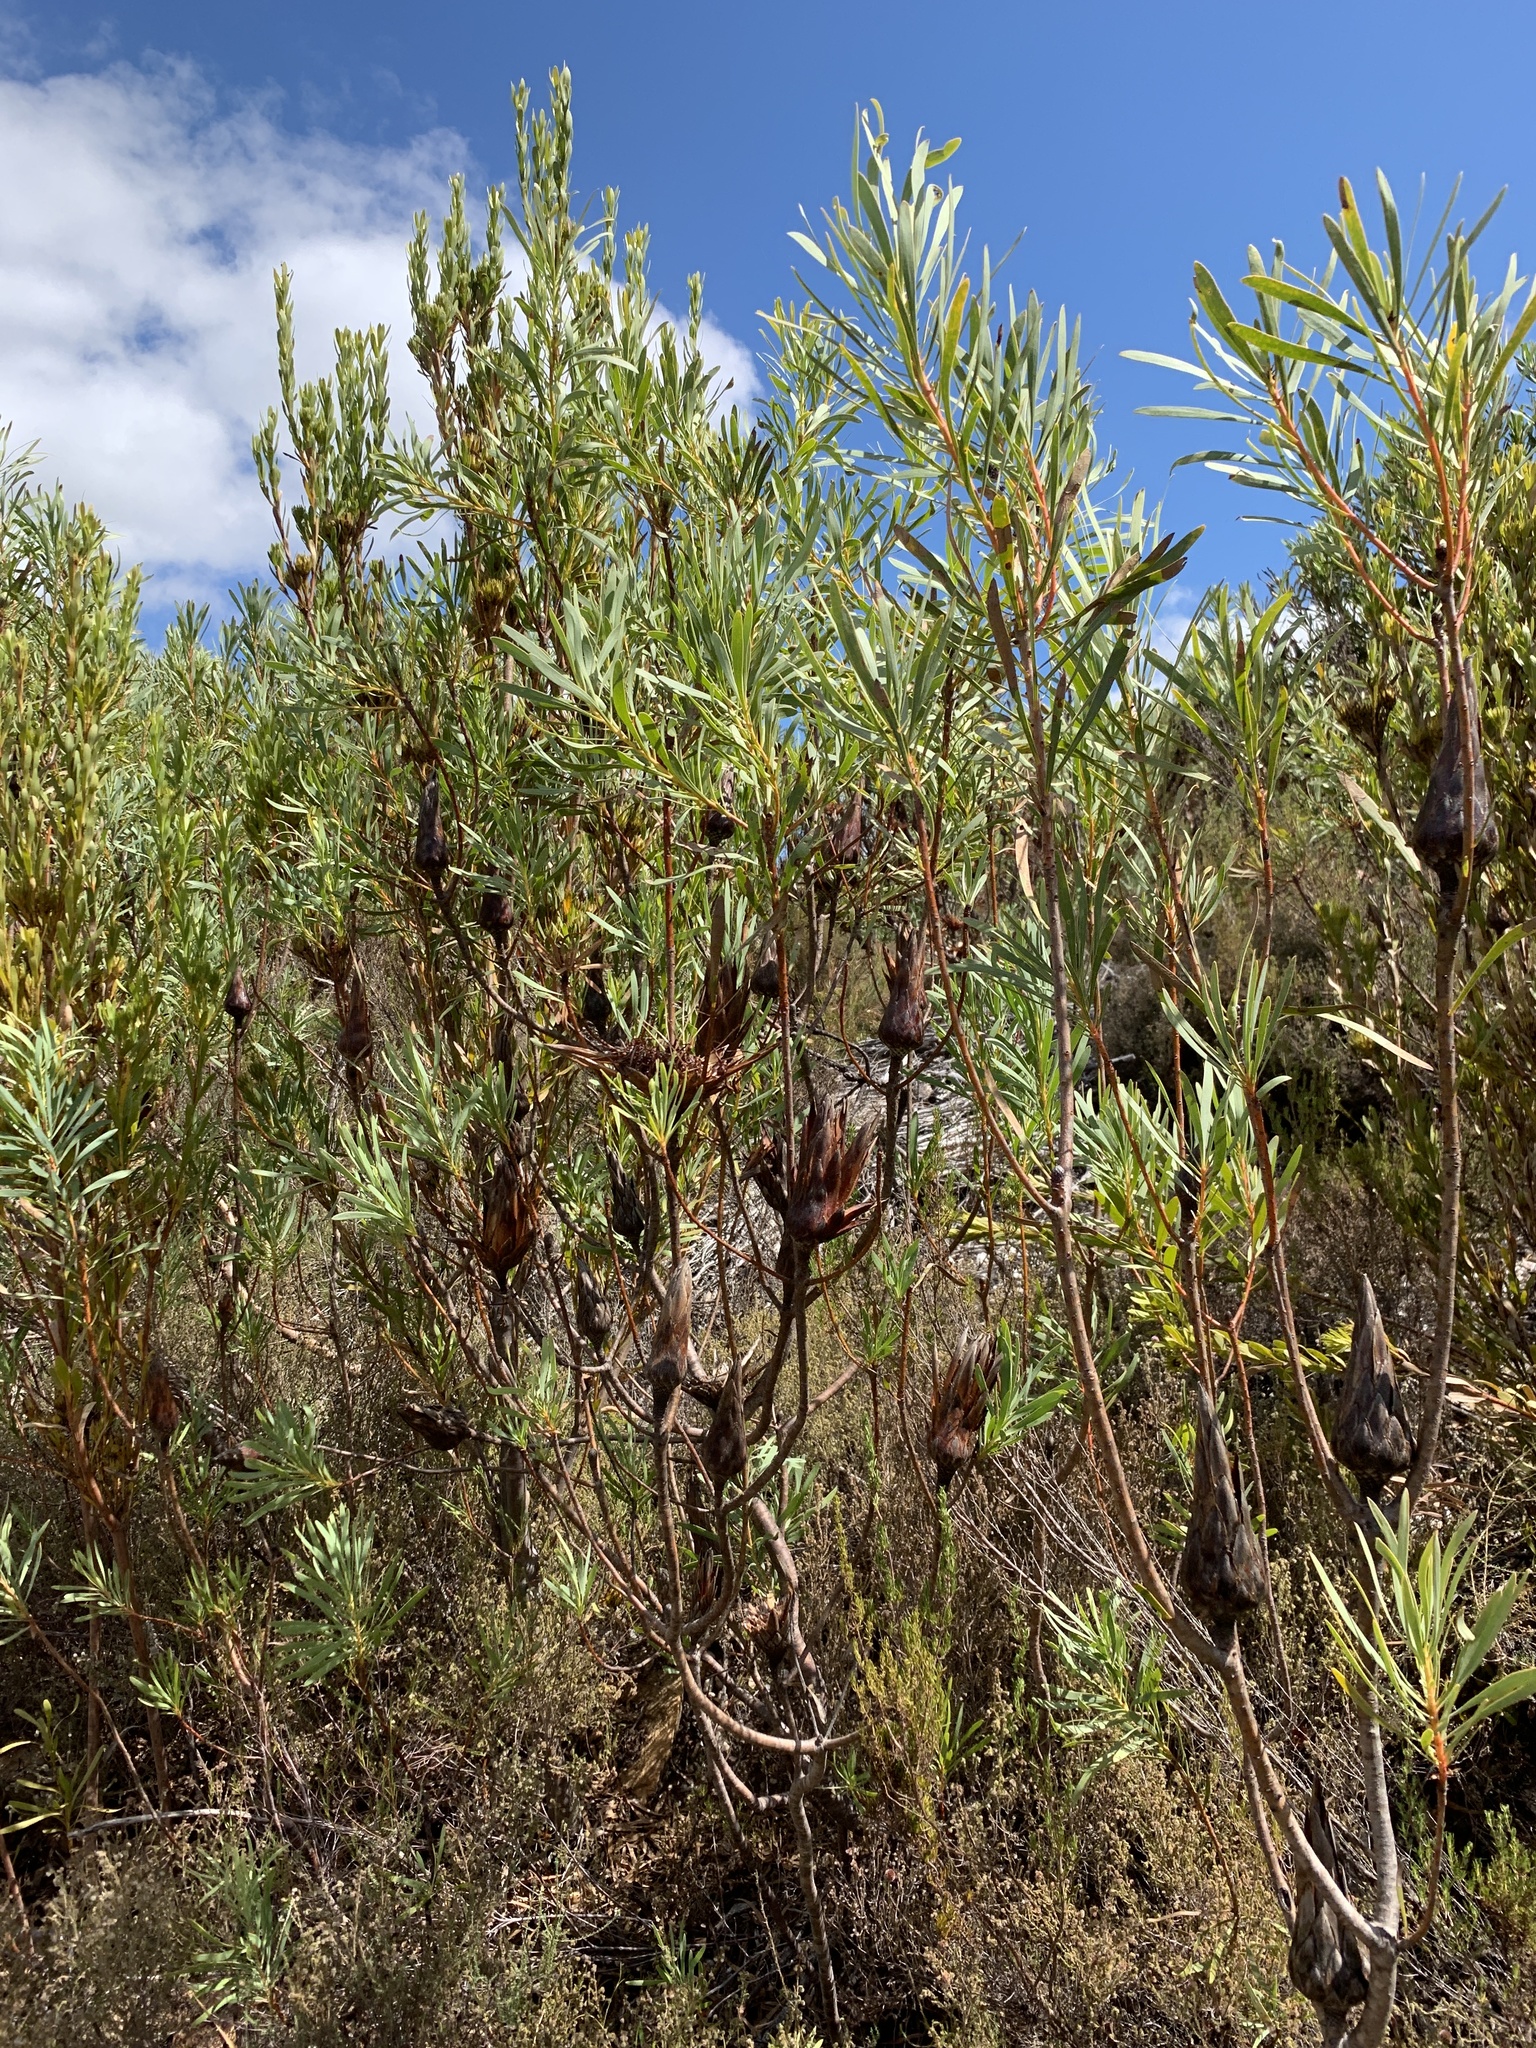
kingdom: Plantae
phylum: Tracheophyta
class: Magnoliopsida
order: Proteales
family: Proteaceae
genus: Protea
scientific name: Protea repens
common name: Sugarbush
